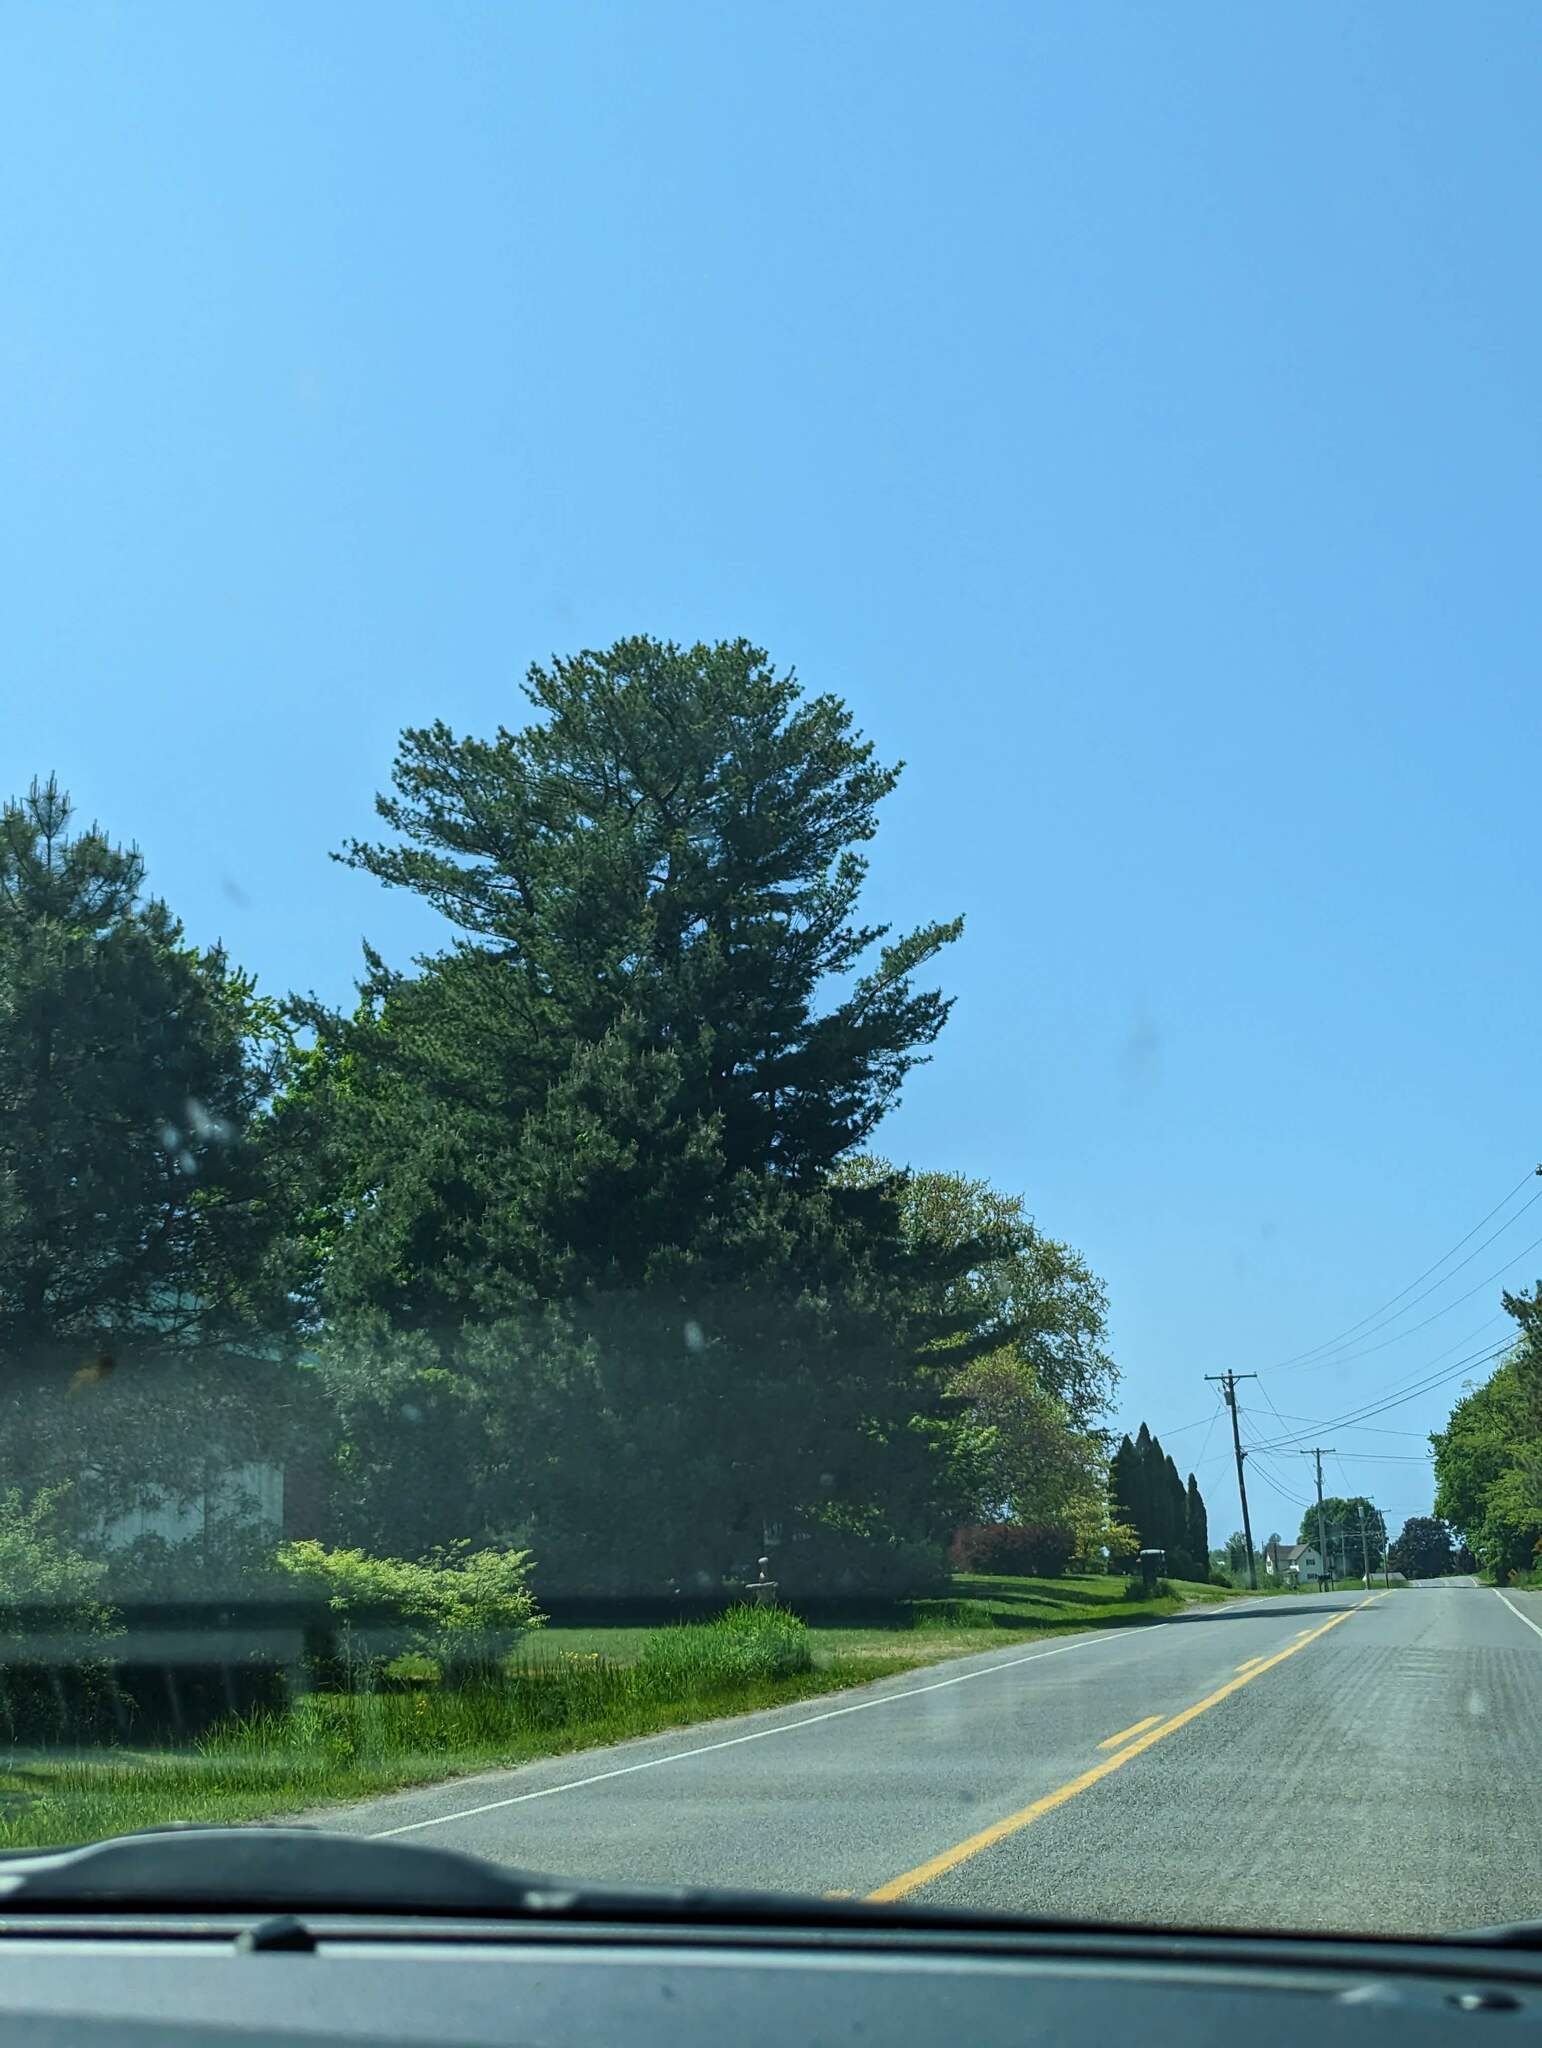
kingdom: Plantae
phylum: Tracheophyta
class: Pinopsida
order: Pinales
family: Pinaceae
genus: Pinus
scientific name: Pinus strobus
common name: Weymouth pine
